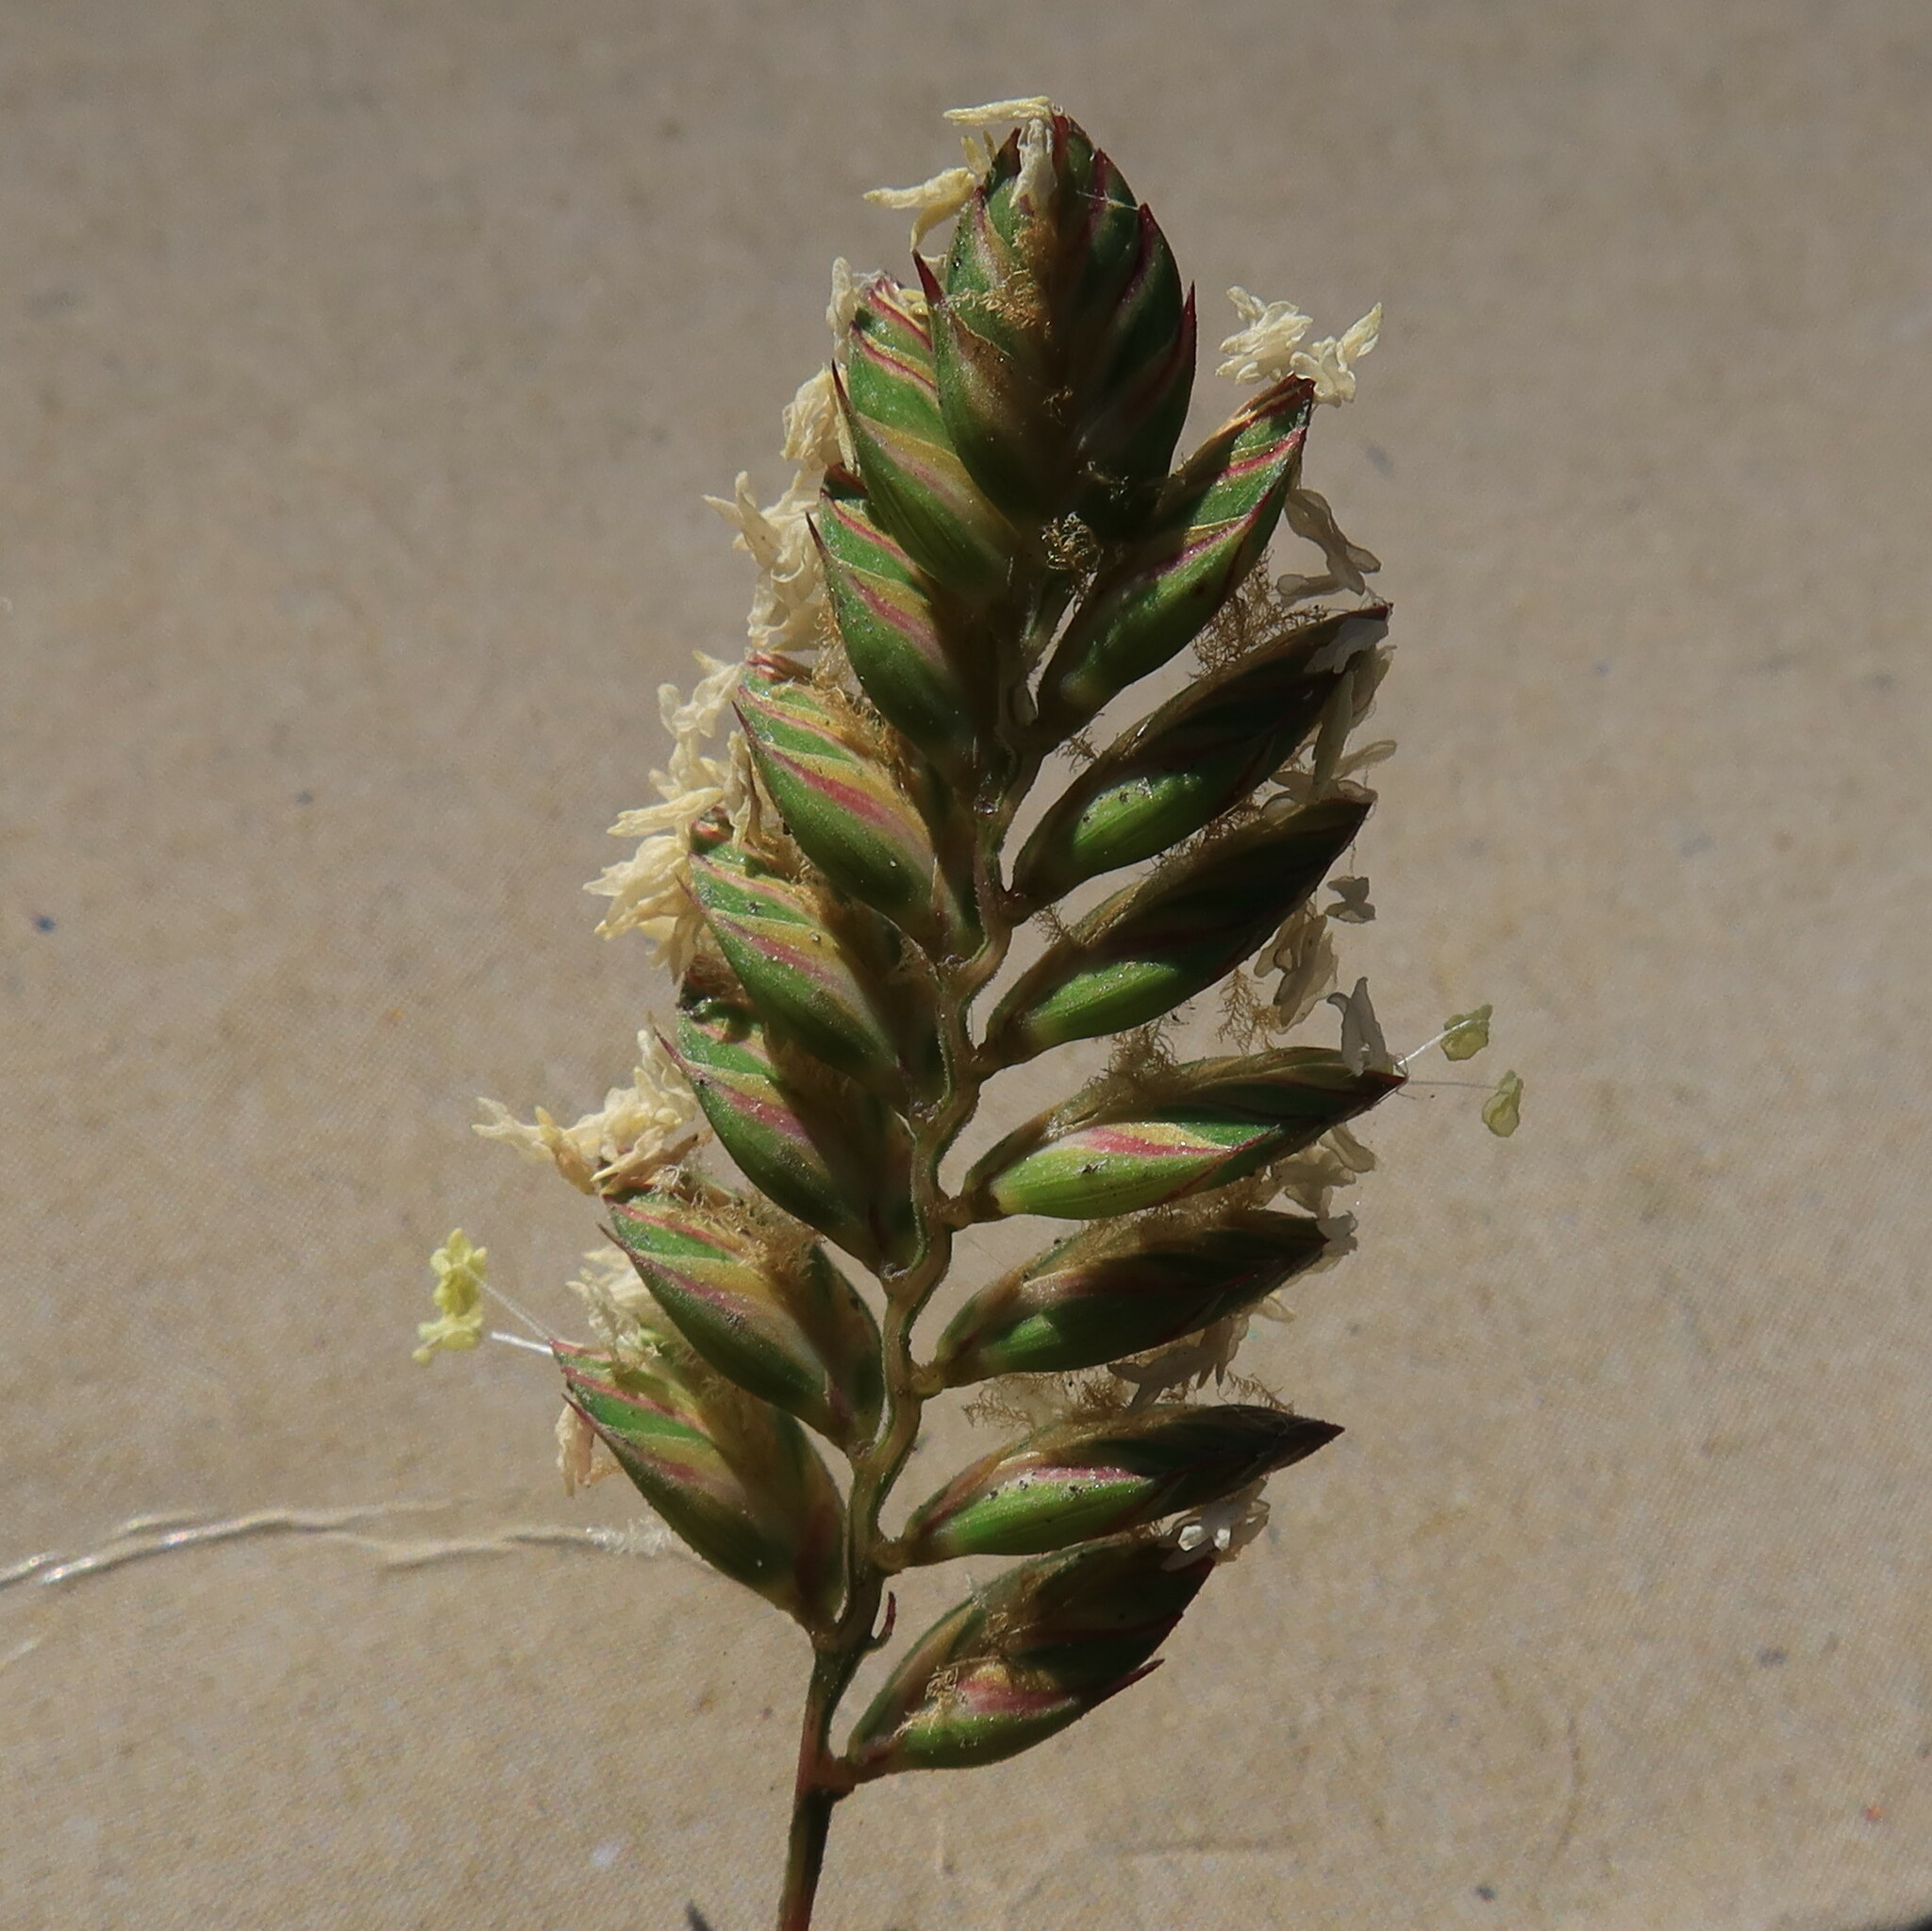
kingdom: Plantae
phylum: Tracheophyta
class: Liliopsida
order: Poales
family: Poaceae
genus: Tribolium
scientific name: Tribolium uniolae
